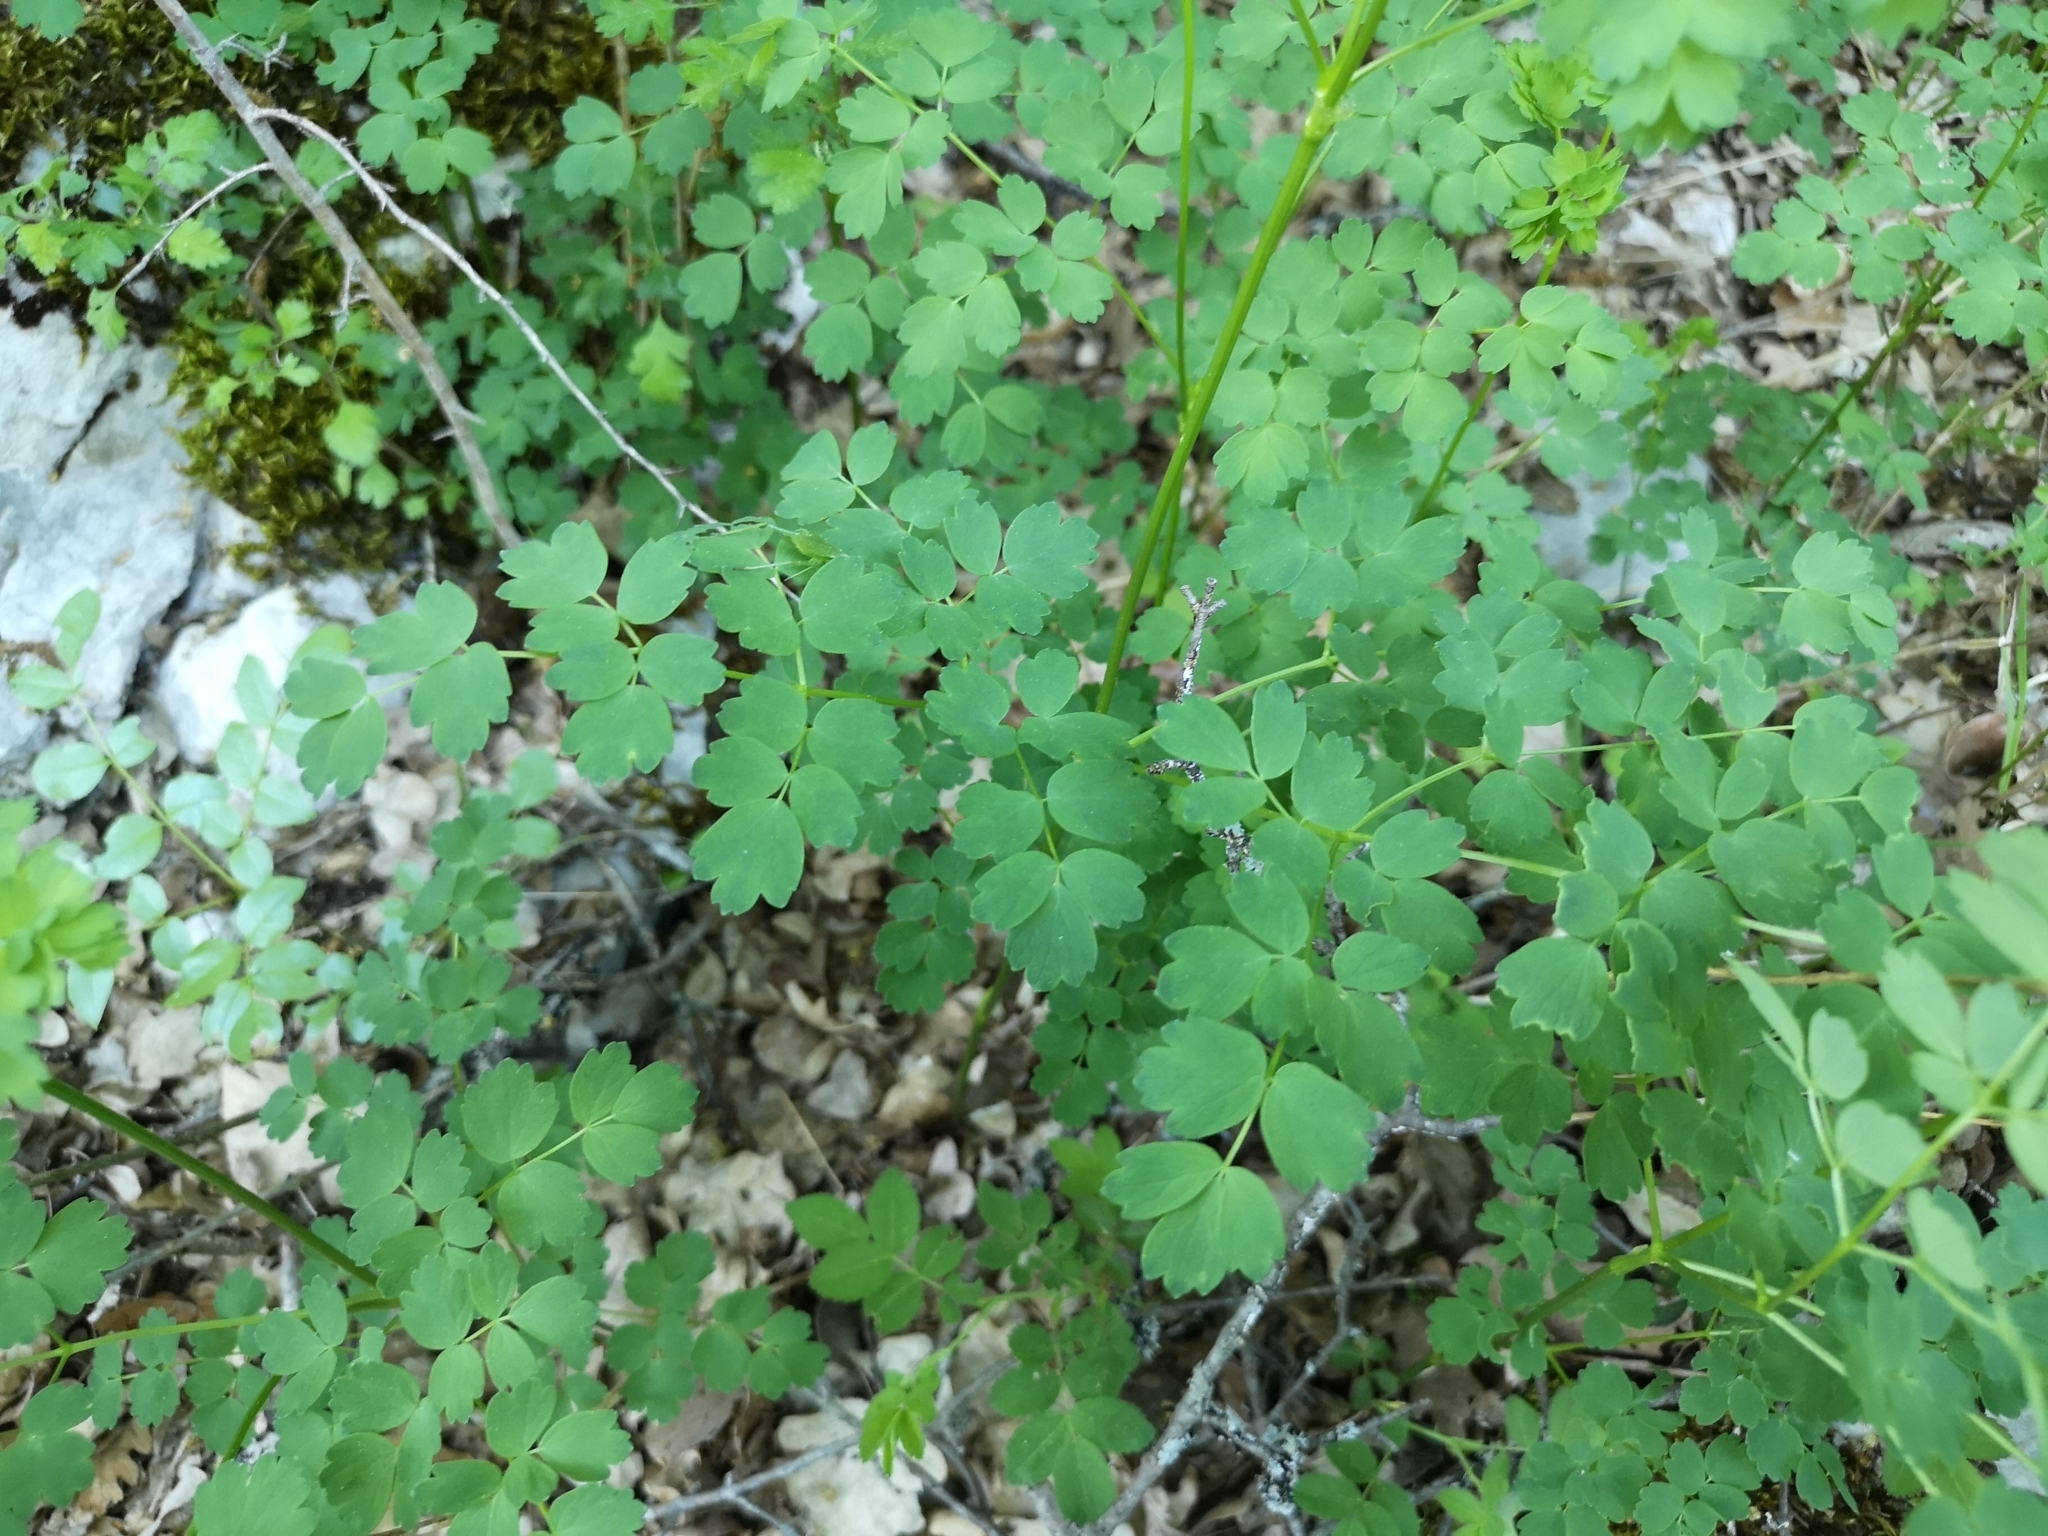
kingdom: Plantae
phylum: Tracheophyta
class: Magnoliopsida
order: Ranunculales
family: Ranunculaceae
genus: Thalictrum
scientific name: Thalictrum minus
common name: Lesser meadow-rue
